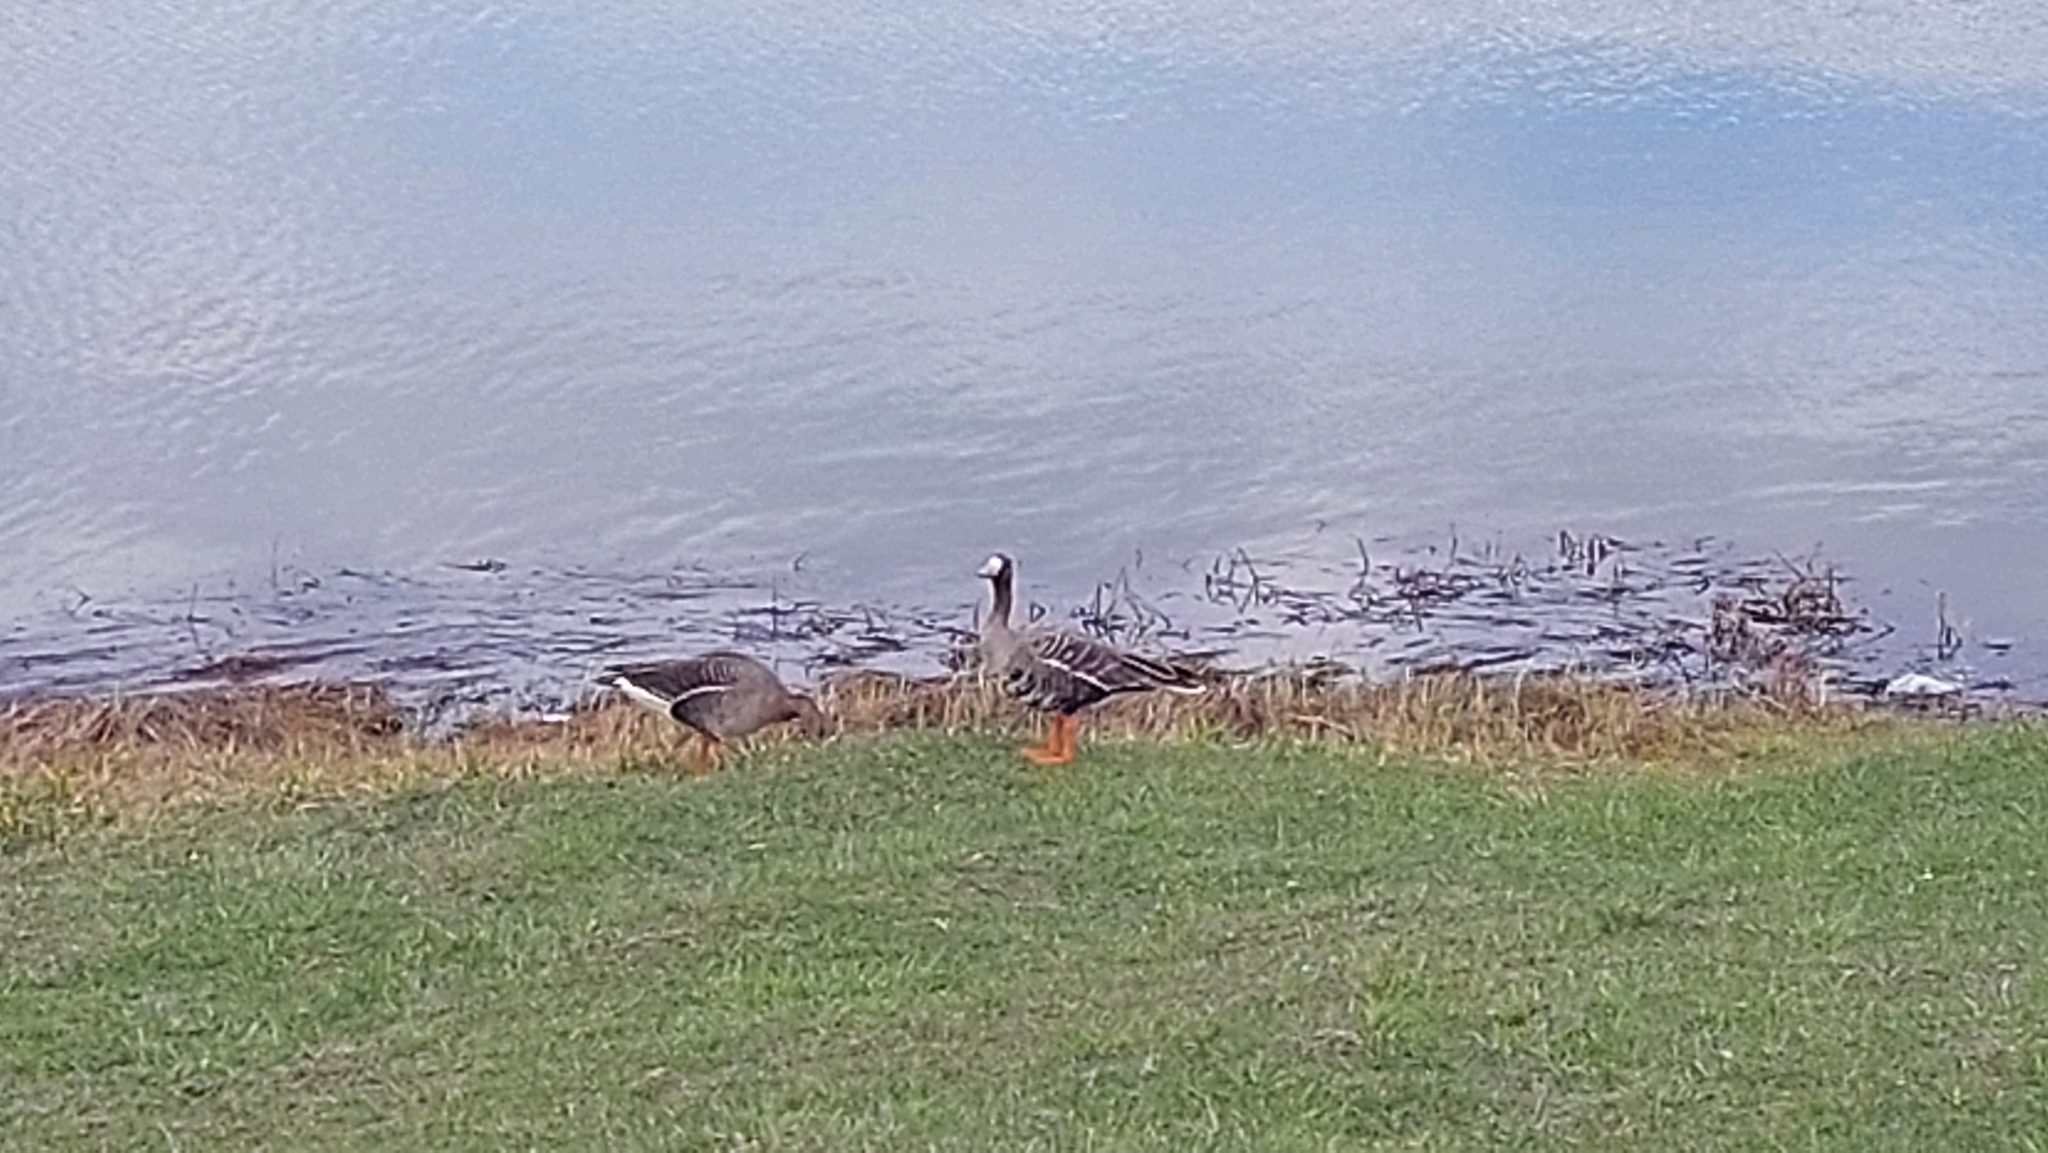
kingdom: Animalia
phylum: Chordata
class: Aves
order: Anseriformes
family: Anatidae
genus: Anser
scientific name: Anser albifrons
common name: Greater white-fronted goose
